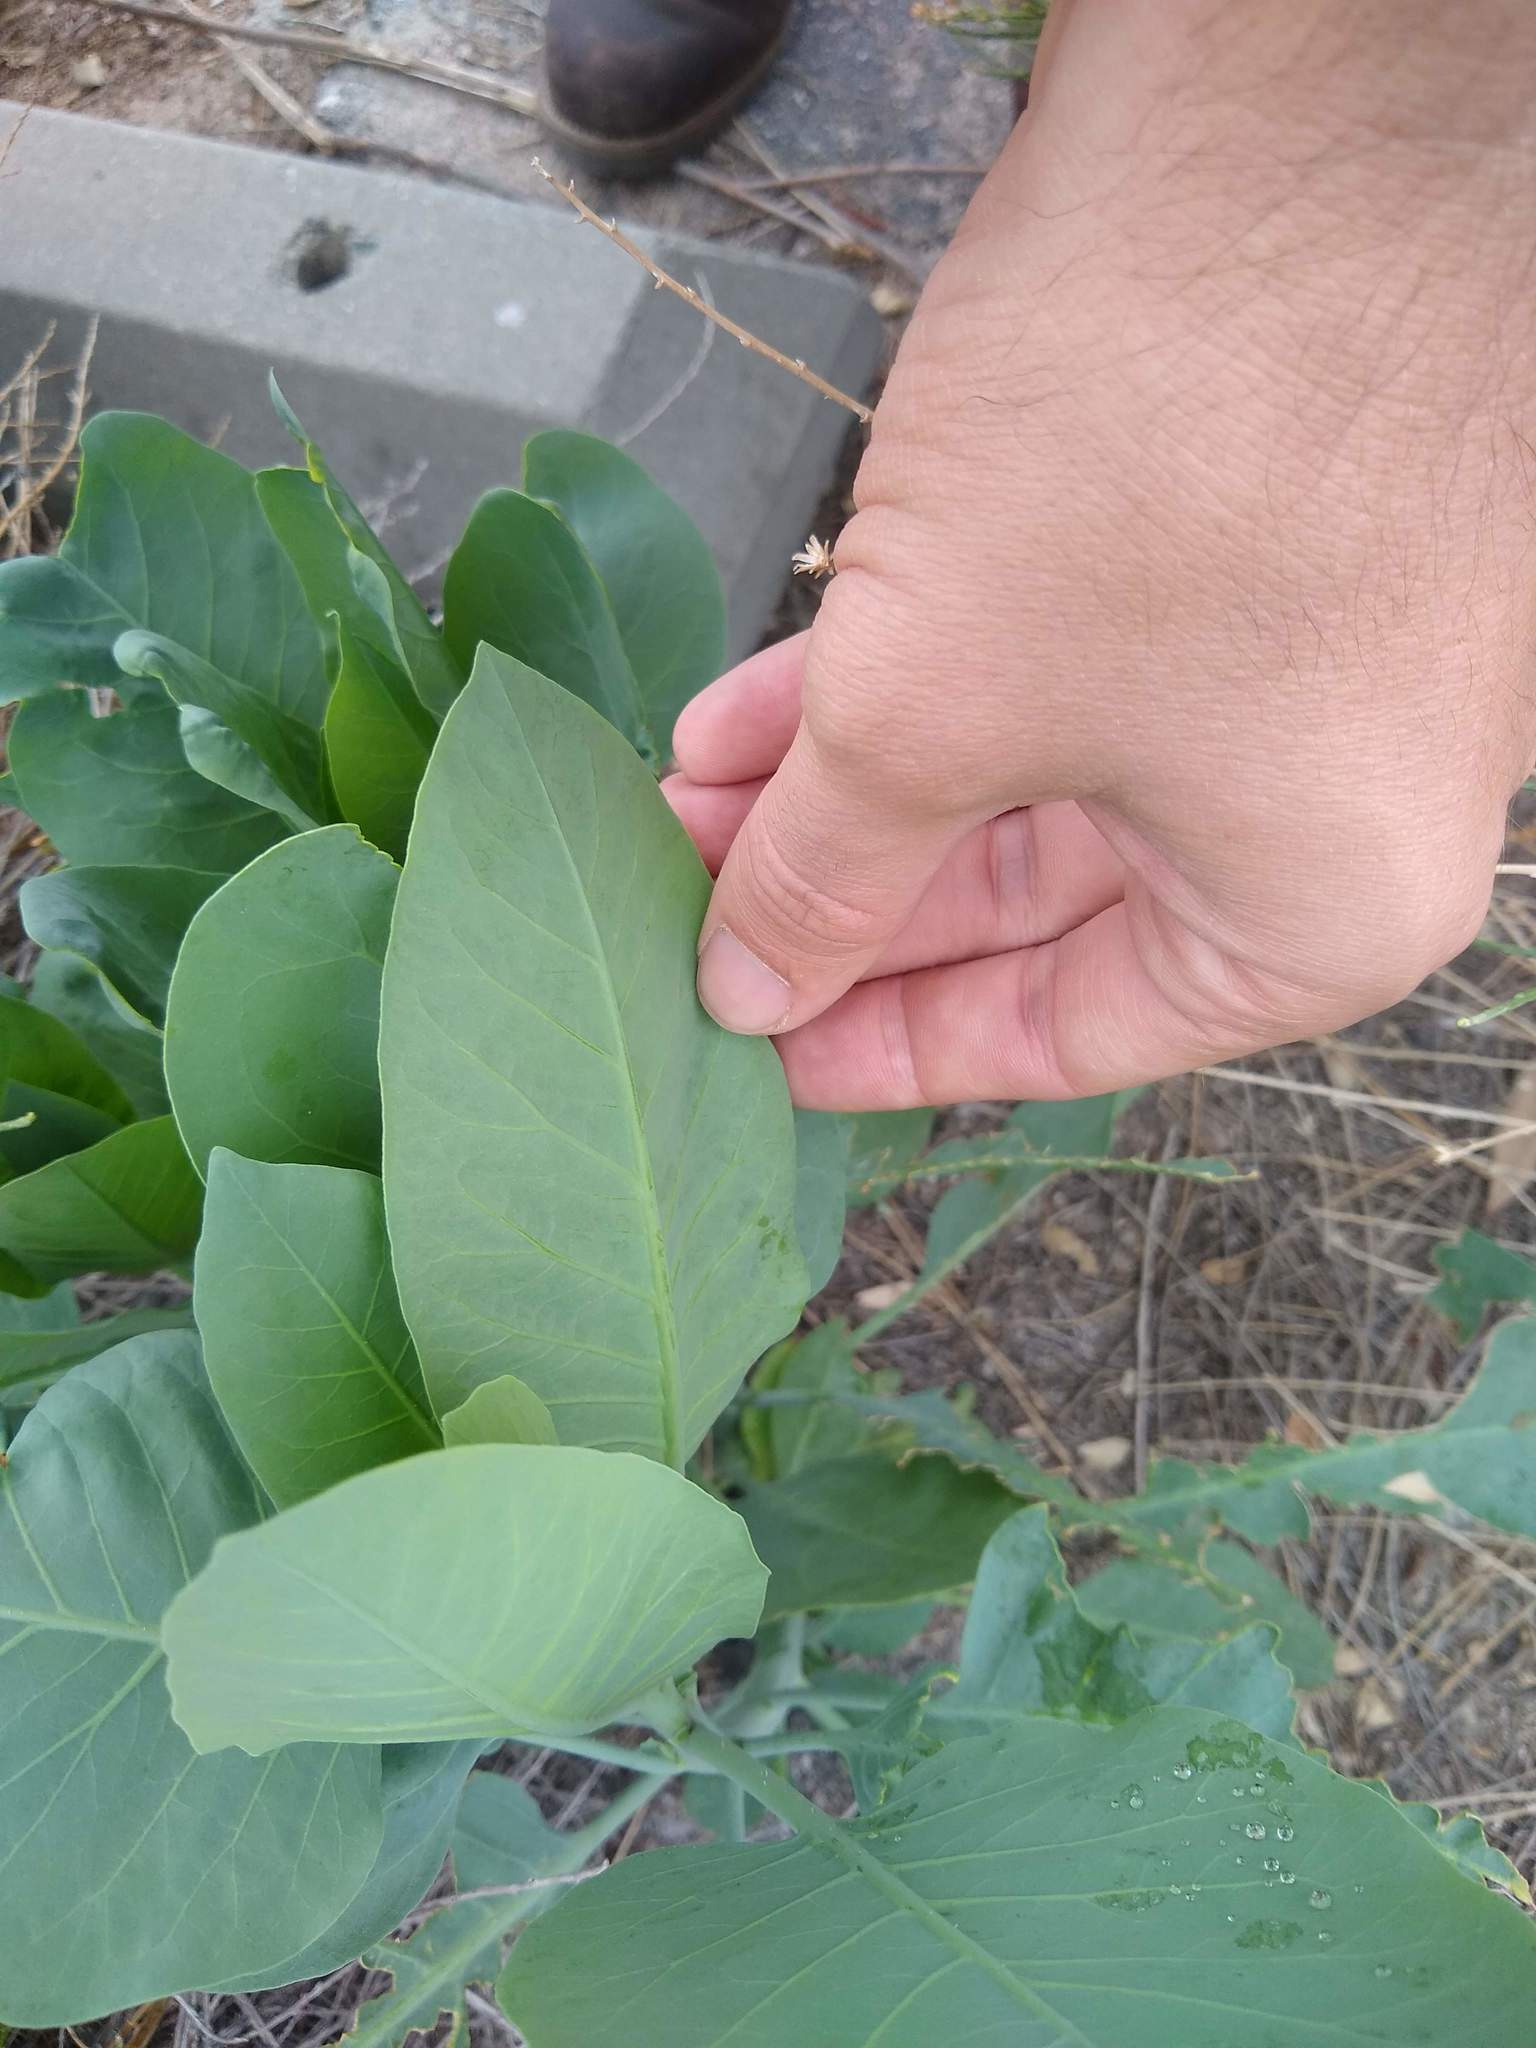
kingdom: Plantae
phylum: Tracheophyta
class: Magnoliopsida
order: Solanales
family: Solanaceae
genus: Nicotiana
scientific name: Nicotiana glauca
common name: Tree tobacco
